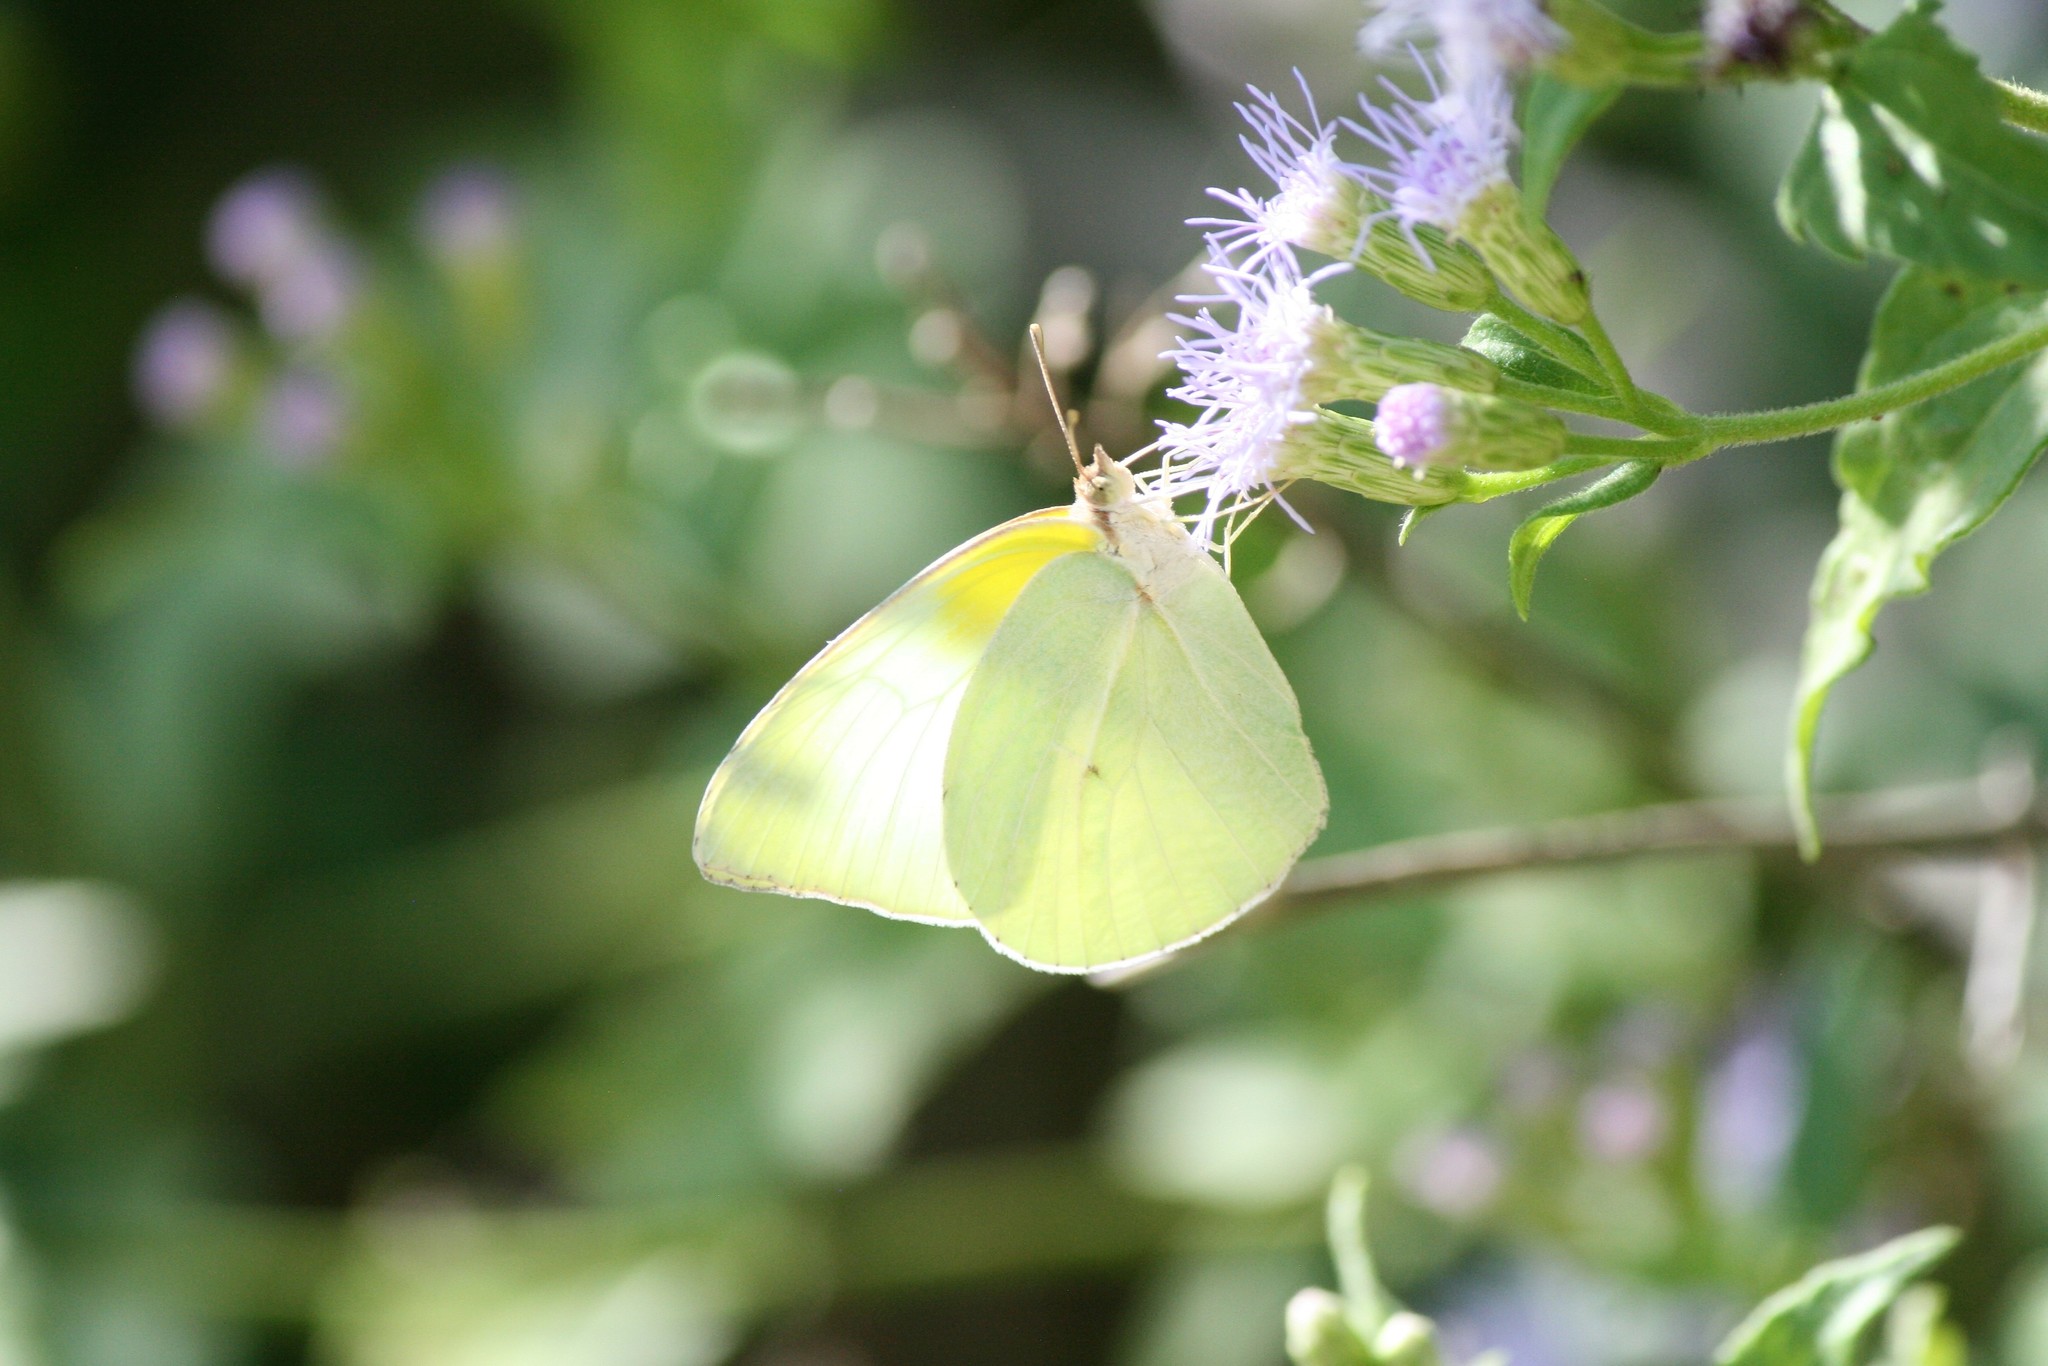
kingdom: Animalia
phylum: Arthropoda
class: Insecta
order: Lepidoptera
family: Pieridae
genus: Kricogonia
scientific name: Kricogonia lyside
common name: Guayacan sulphur,
